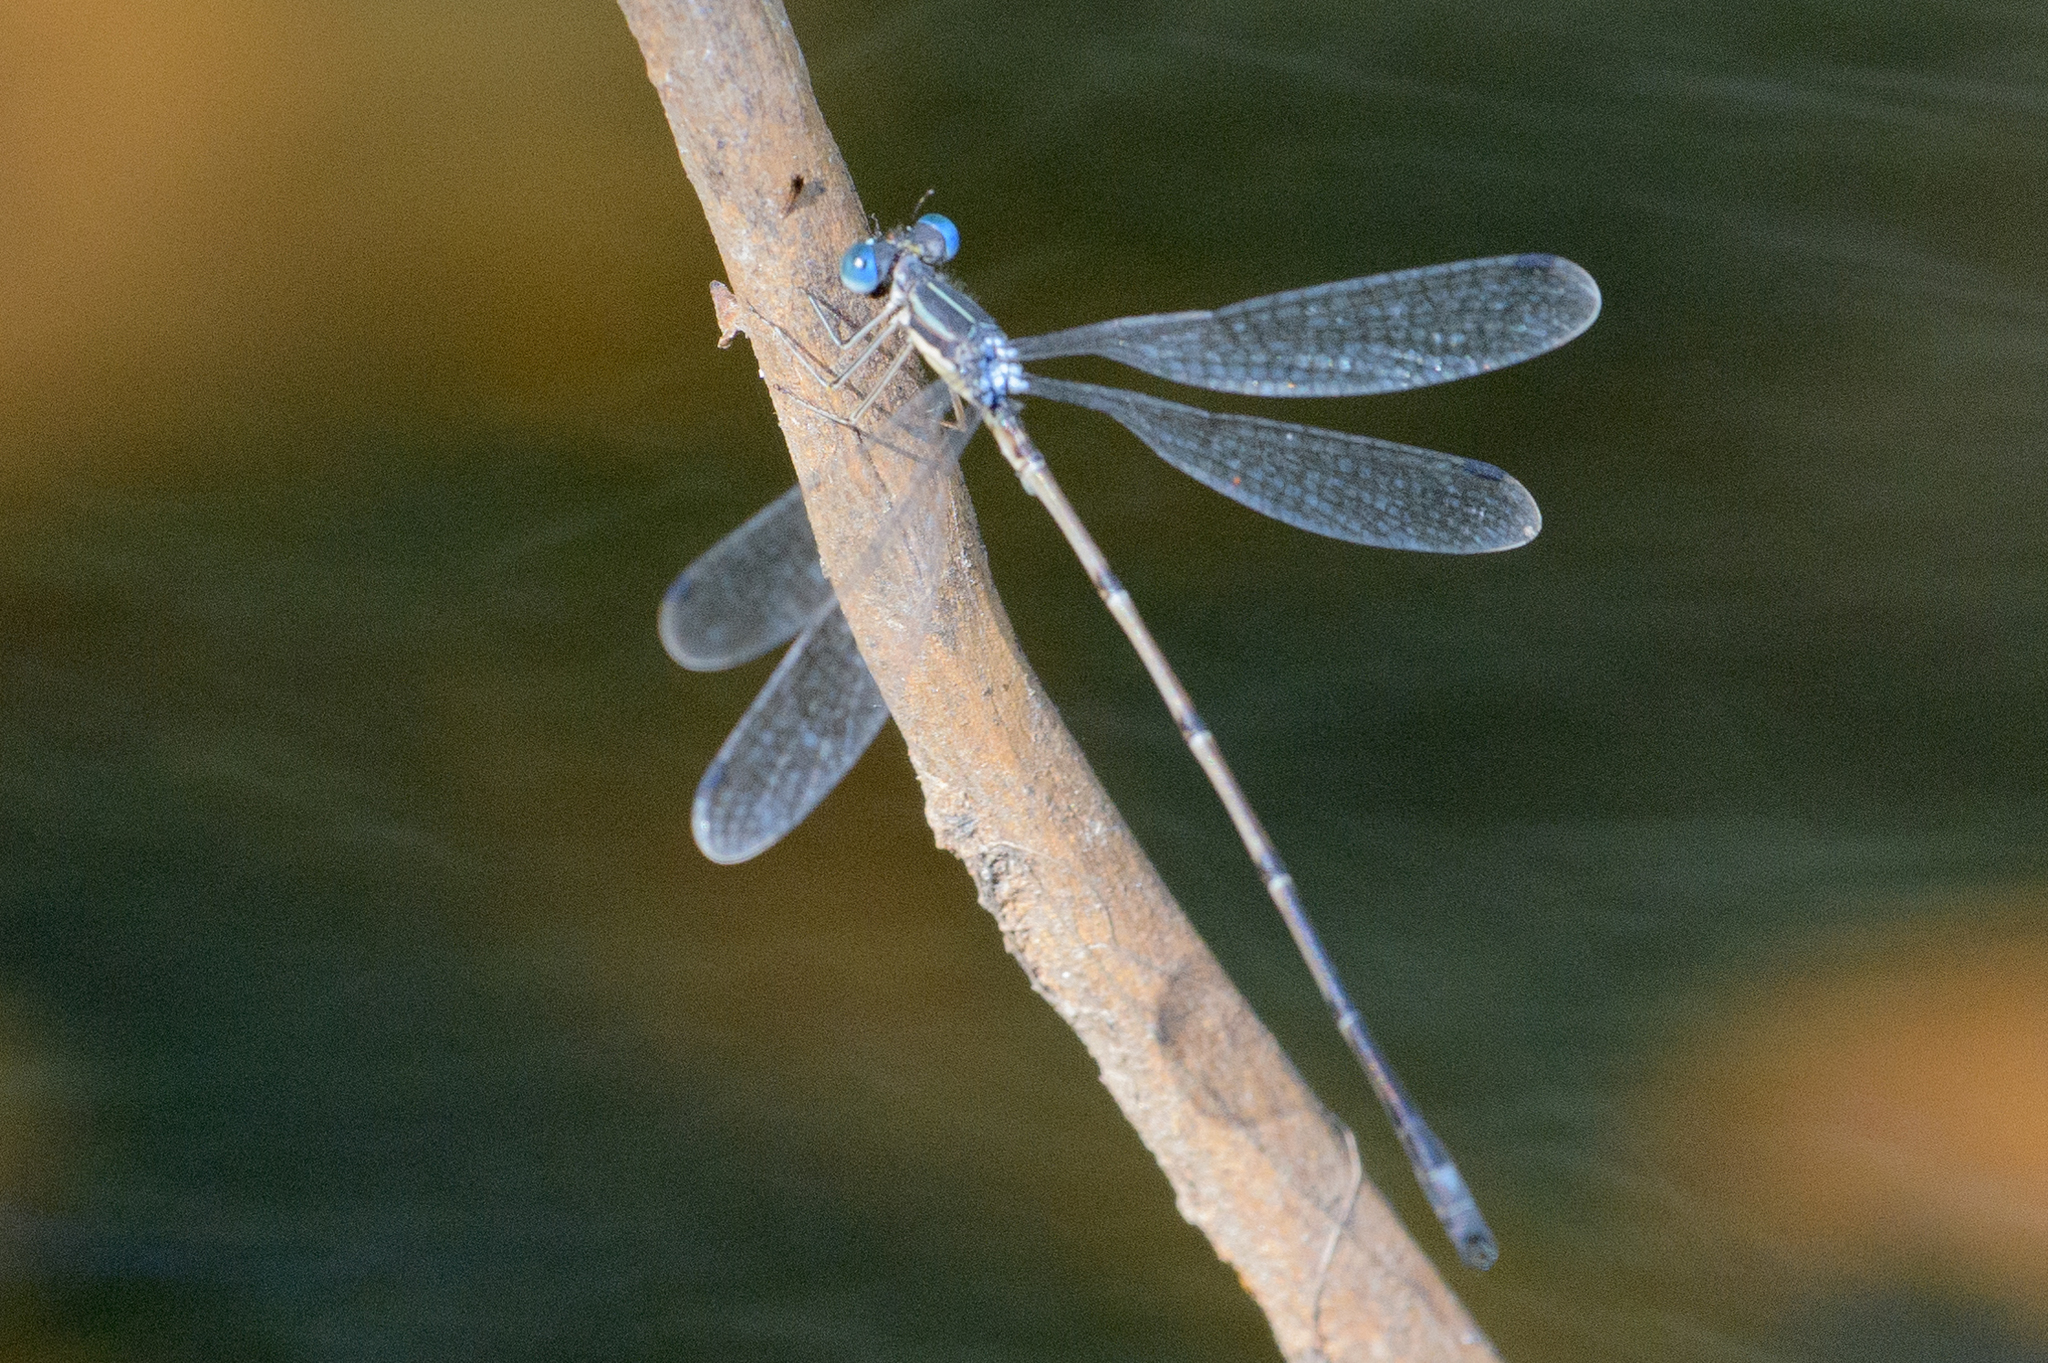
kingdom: Animalia
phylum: Arthropoda
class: Insecta
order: Odonata
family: Lestidae
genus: Lestes
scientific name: Lestes rectangularis
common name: Slender spreadwing
